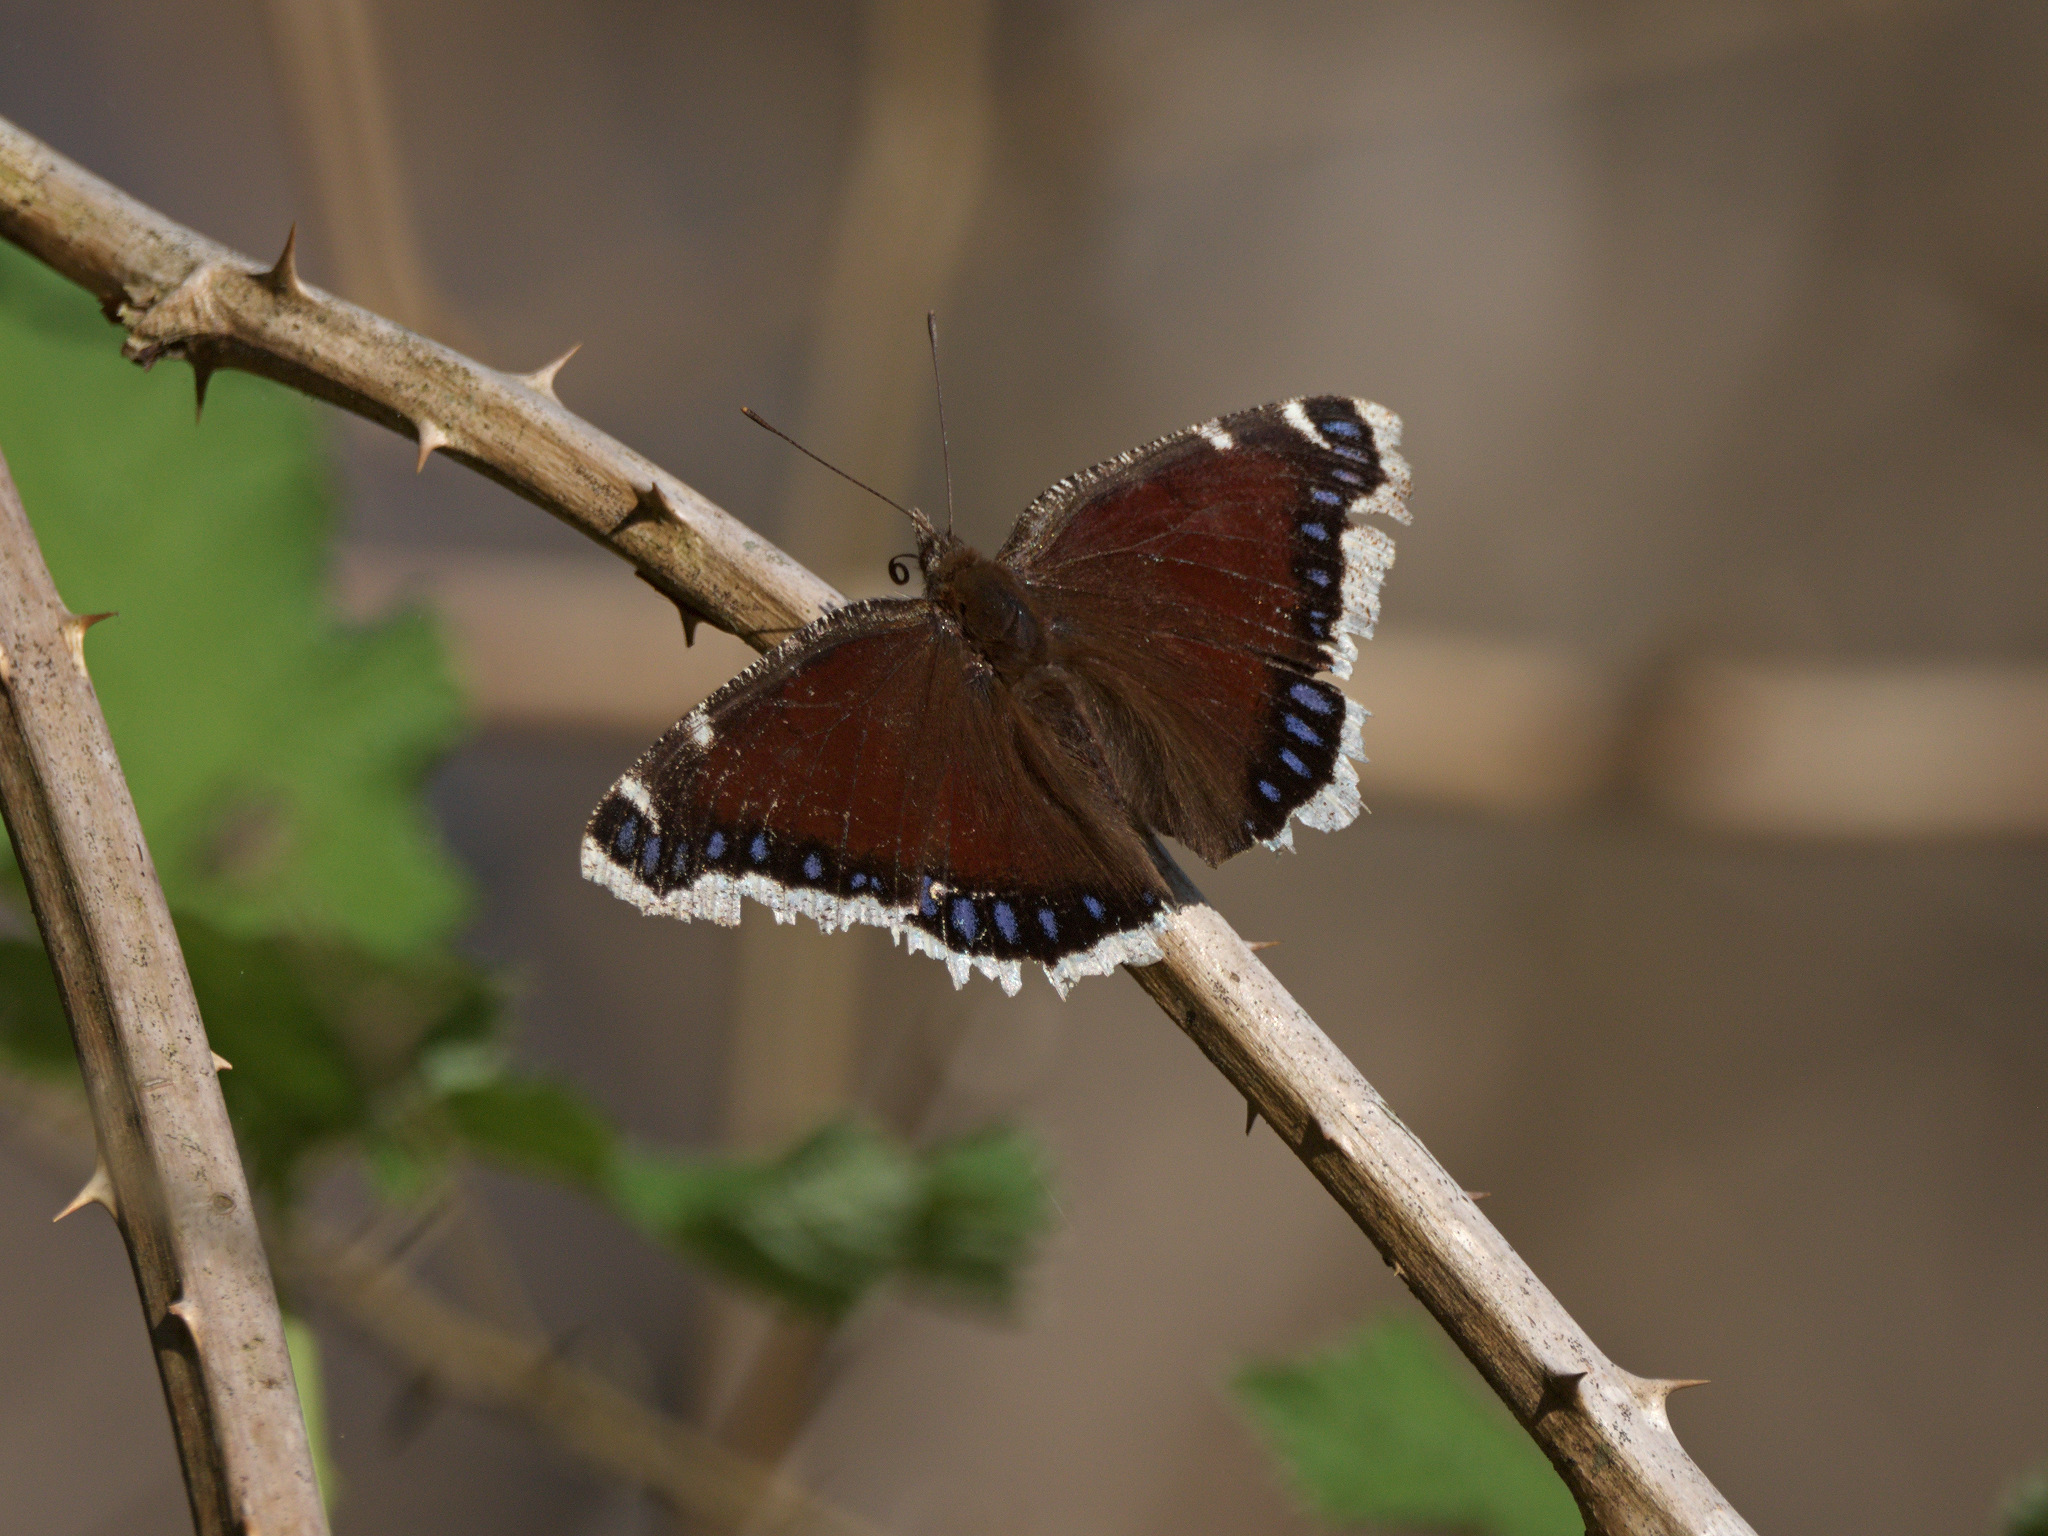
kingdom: Animalia
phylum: Arthropoda
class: Insecta
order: Lepidoptera
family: Nymphalidae
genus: Nymphalis
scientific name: Nymphalis antiopa
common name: Camberwell beauty
